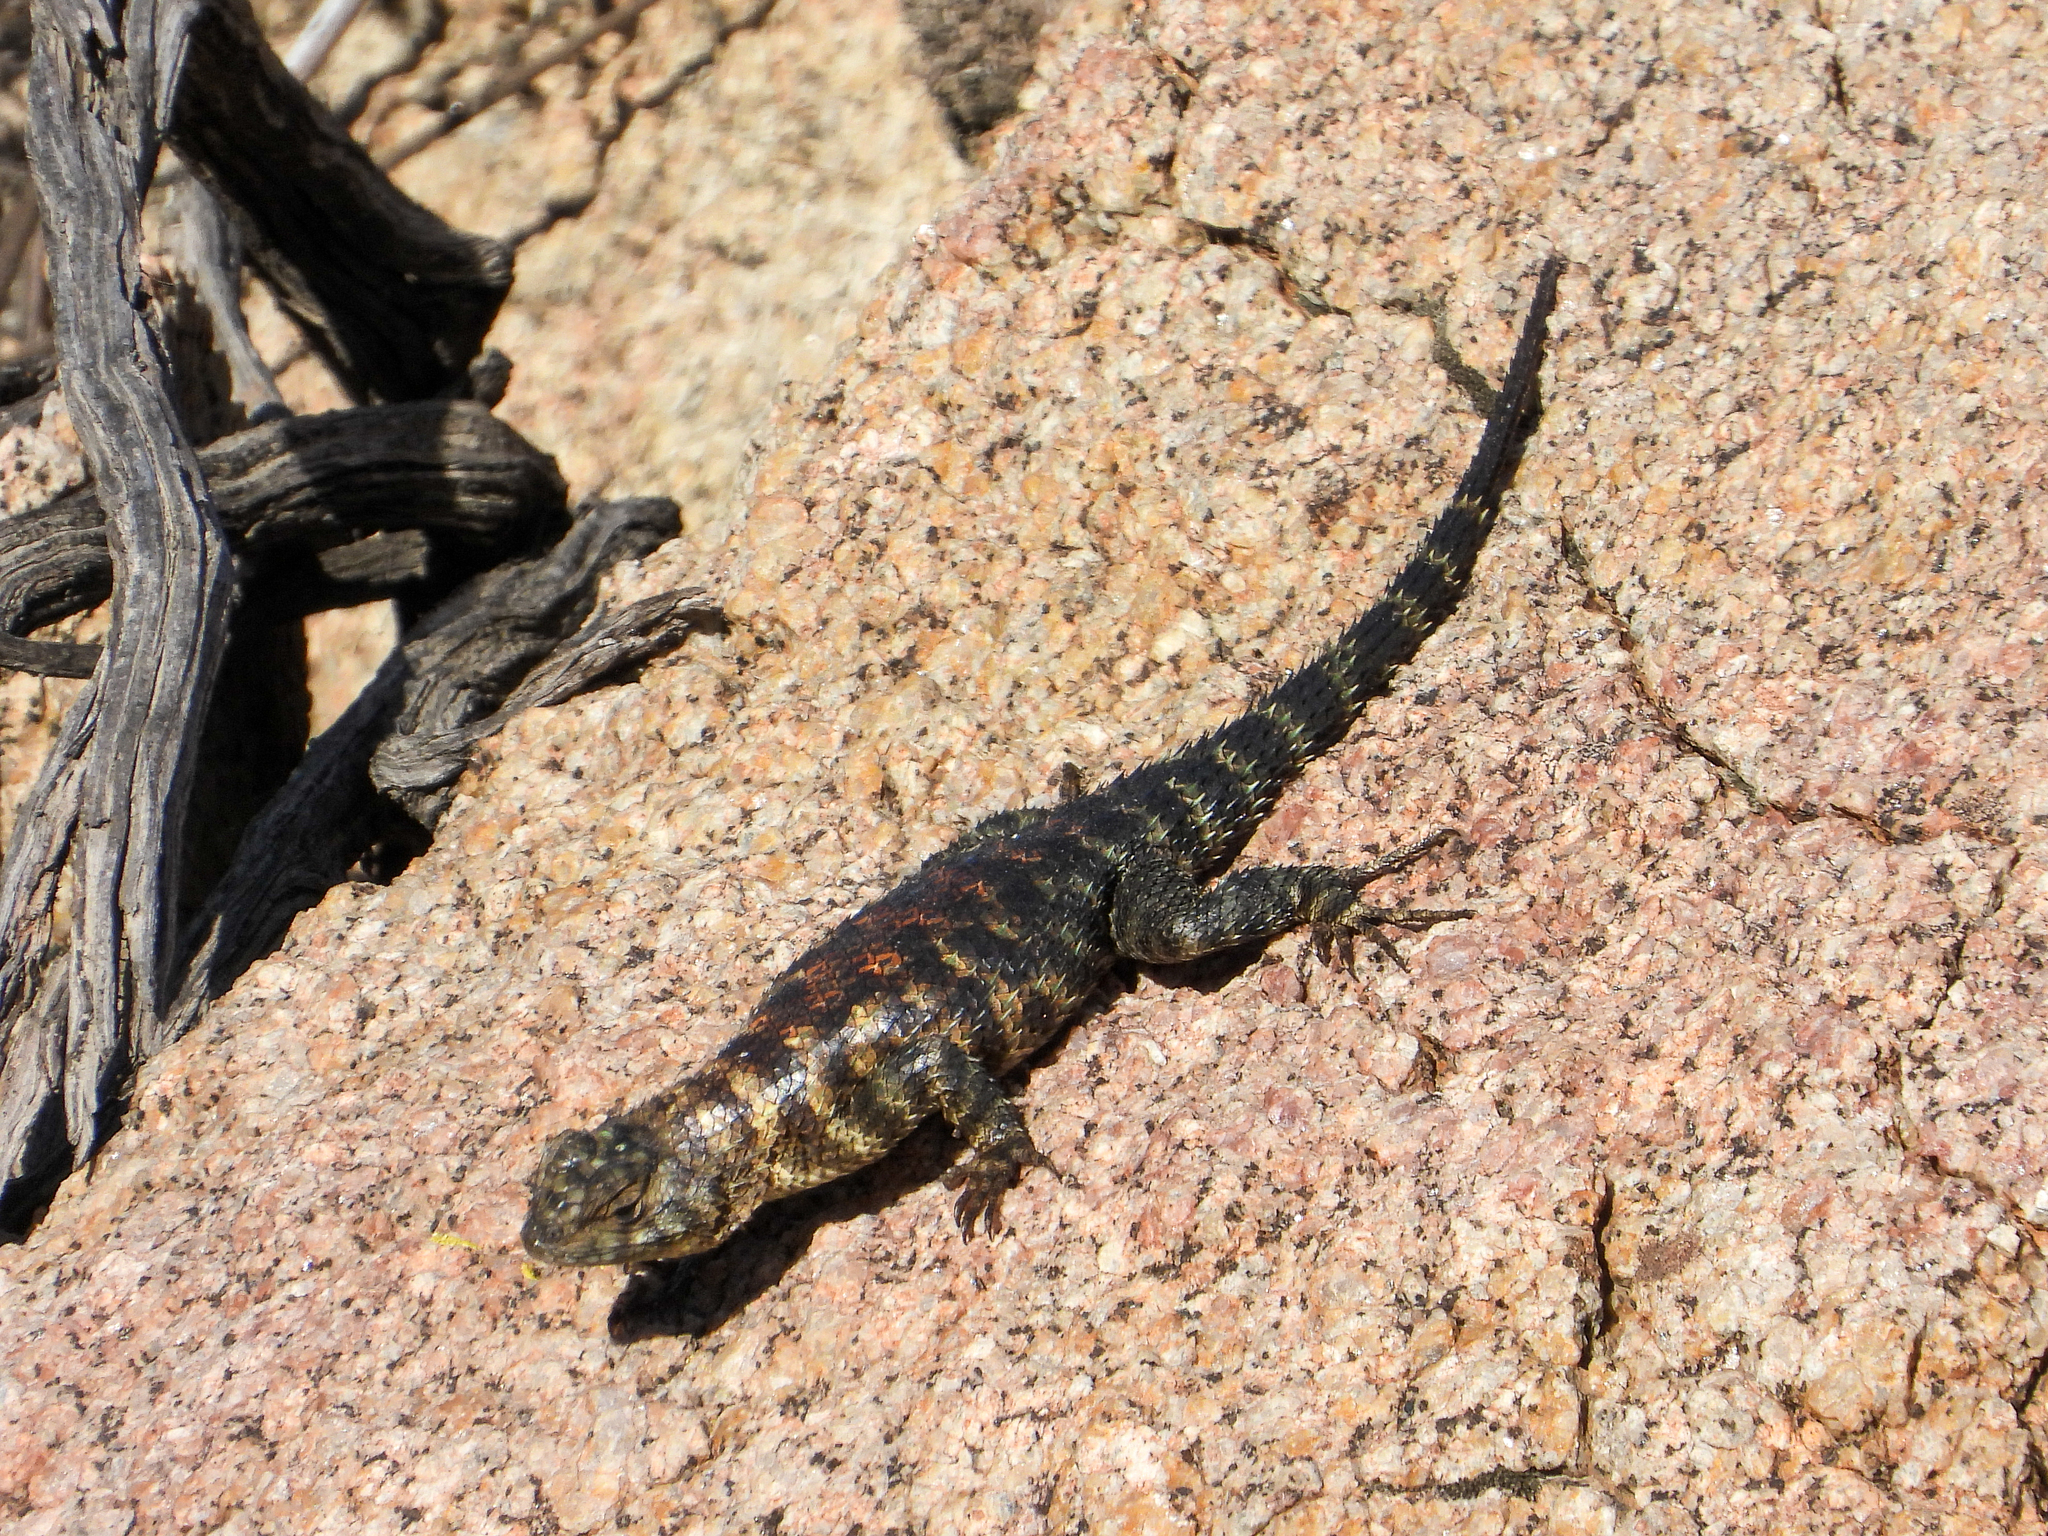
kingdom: Animalia
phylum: Chordata
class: Squamata
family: Phrynosomatidae
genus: Sceloporus
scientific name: Sceloporus orcutti
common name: Granite spiny lizard
